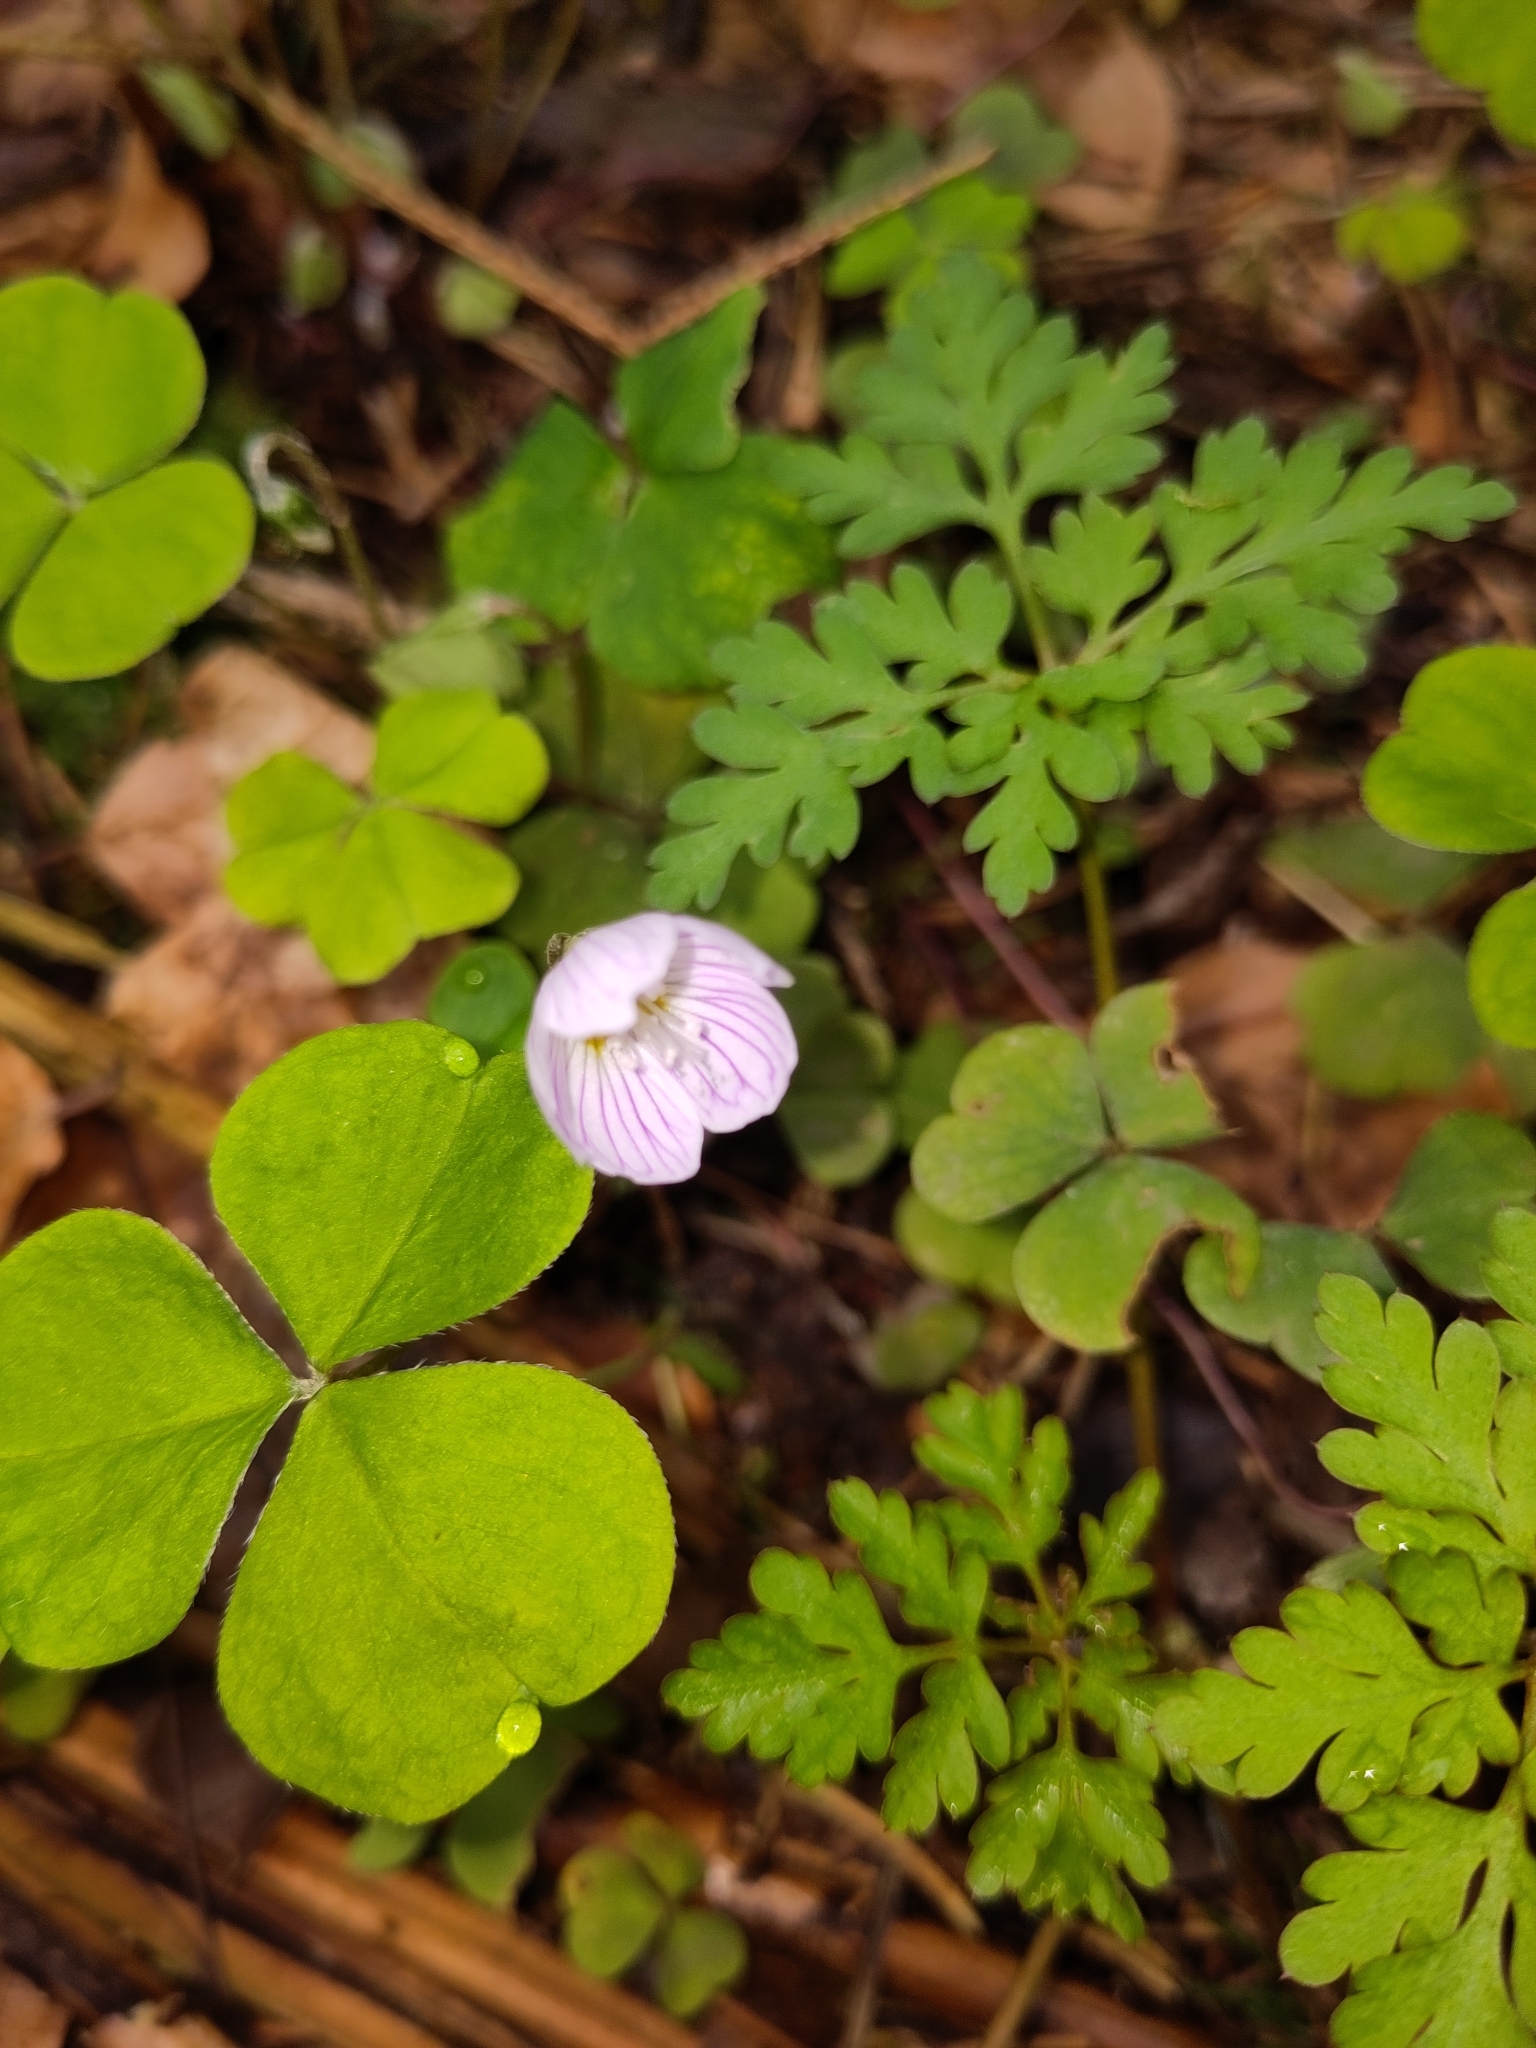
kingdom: Plantae
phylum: Tracheophyta
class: Magnoliopsida
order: Oxalidales
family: Oxalidaceae
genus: Oxalis
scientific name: Oxalis acetosella
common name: Wood-sorrel
